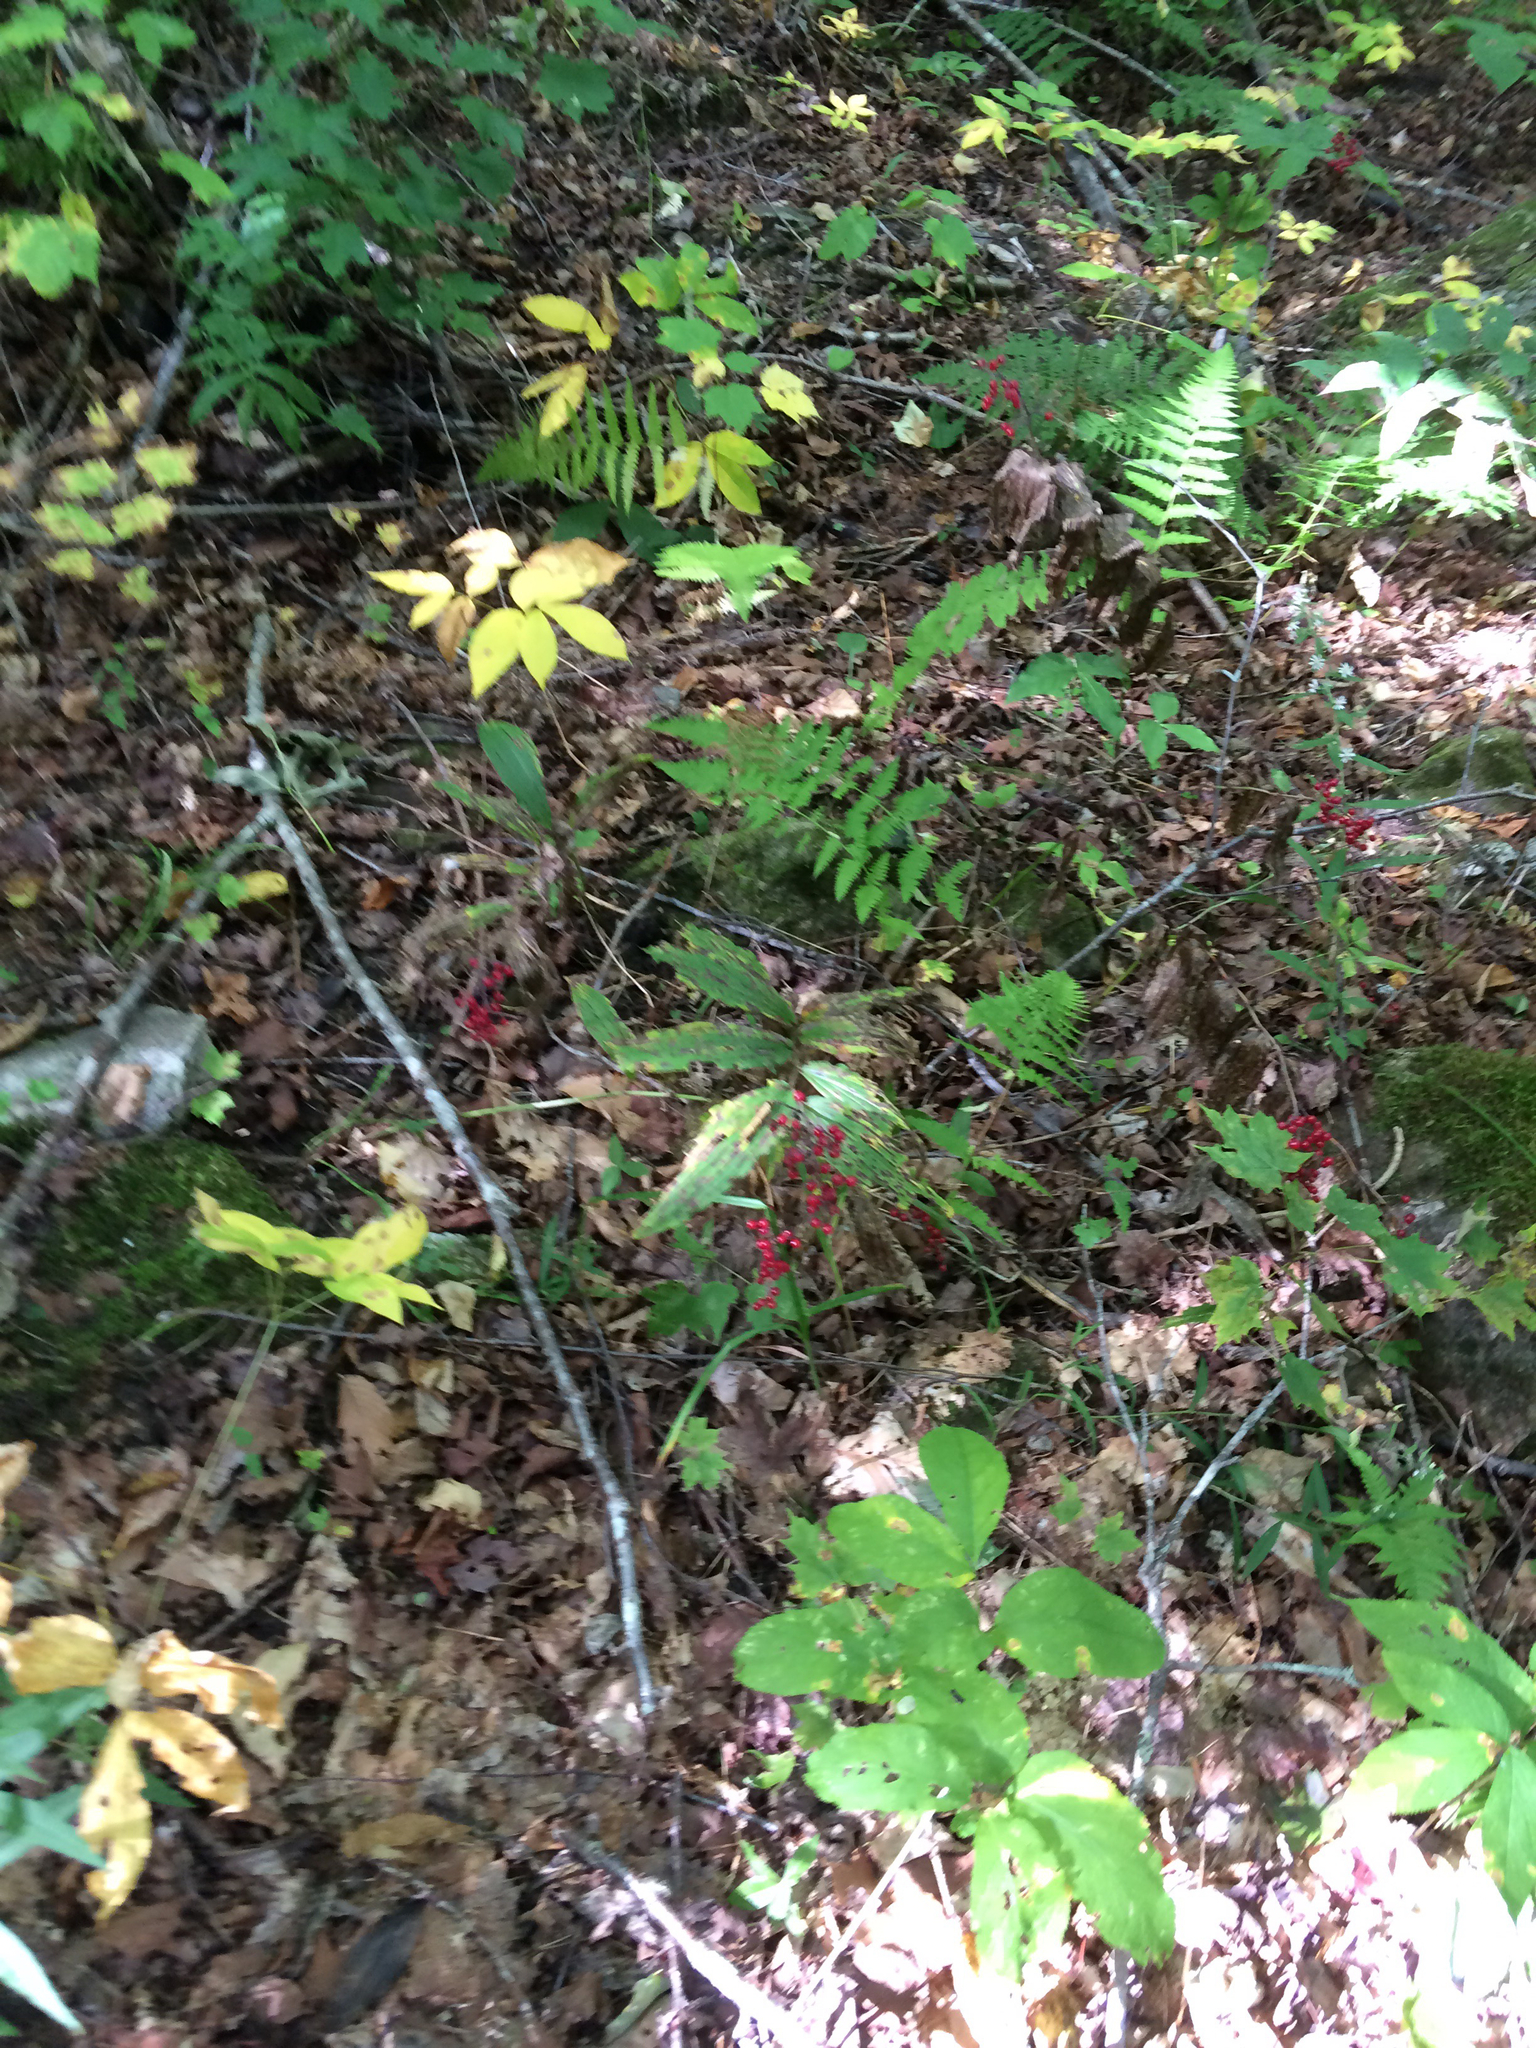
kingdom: Plantae
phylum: Tracheophyta
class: Liliopsida
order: Asparagales
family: Asparagaceae
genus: Maianthemum
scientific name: Maianthemum racemosum
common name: False spikenard
